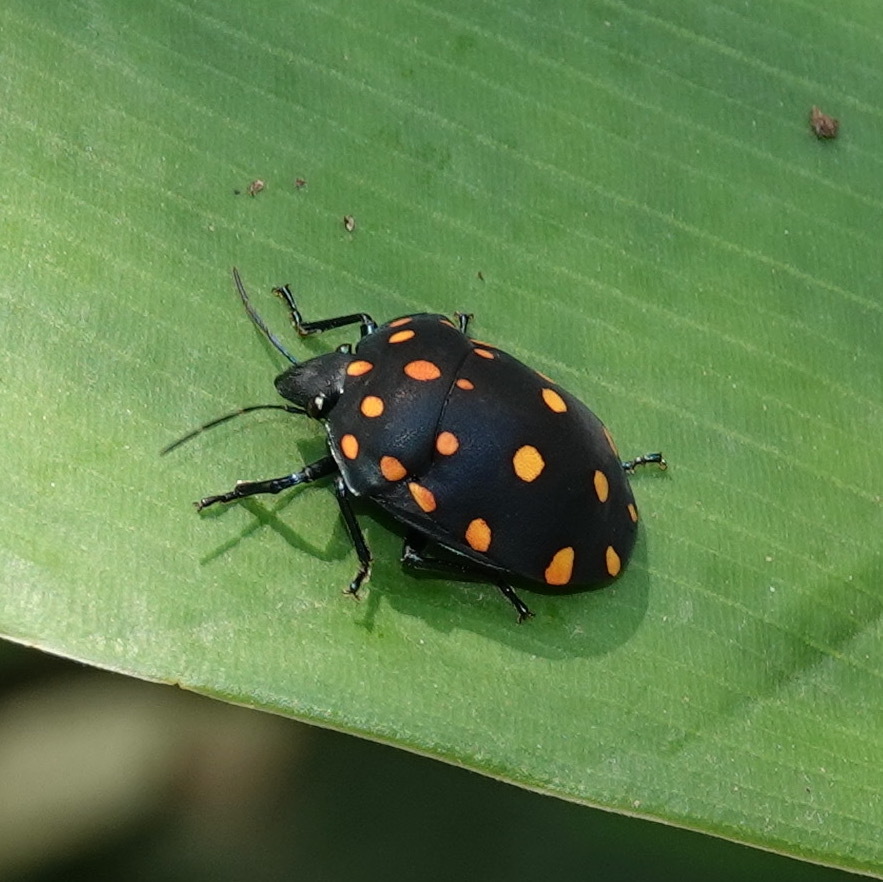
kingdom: Animalia
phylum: Arthropoda
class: Insecta
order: Hemiptera
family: Scutelleridae
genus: Pachycoris
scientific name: Pachycoris torridus
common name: Torrid jewel bug
